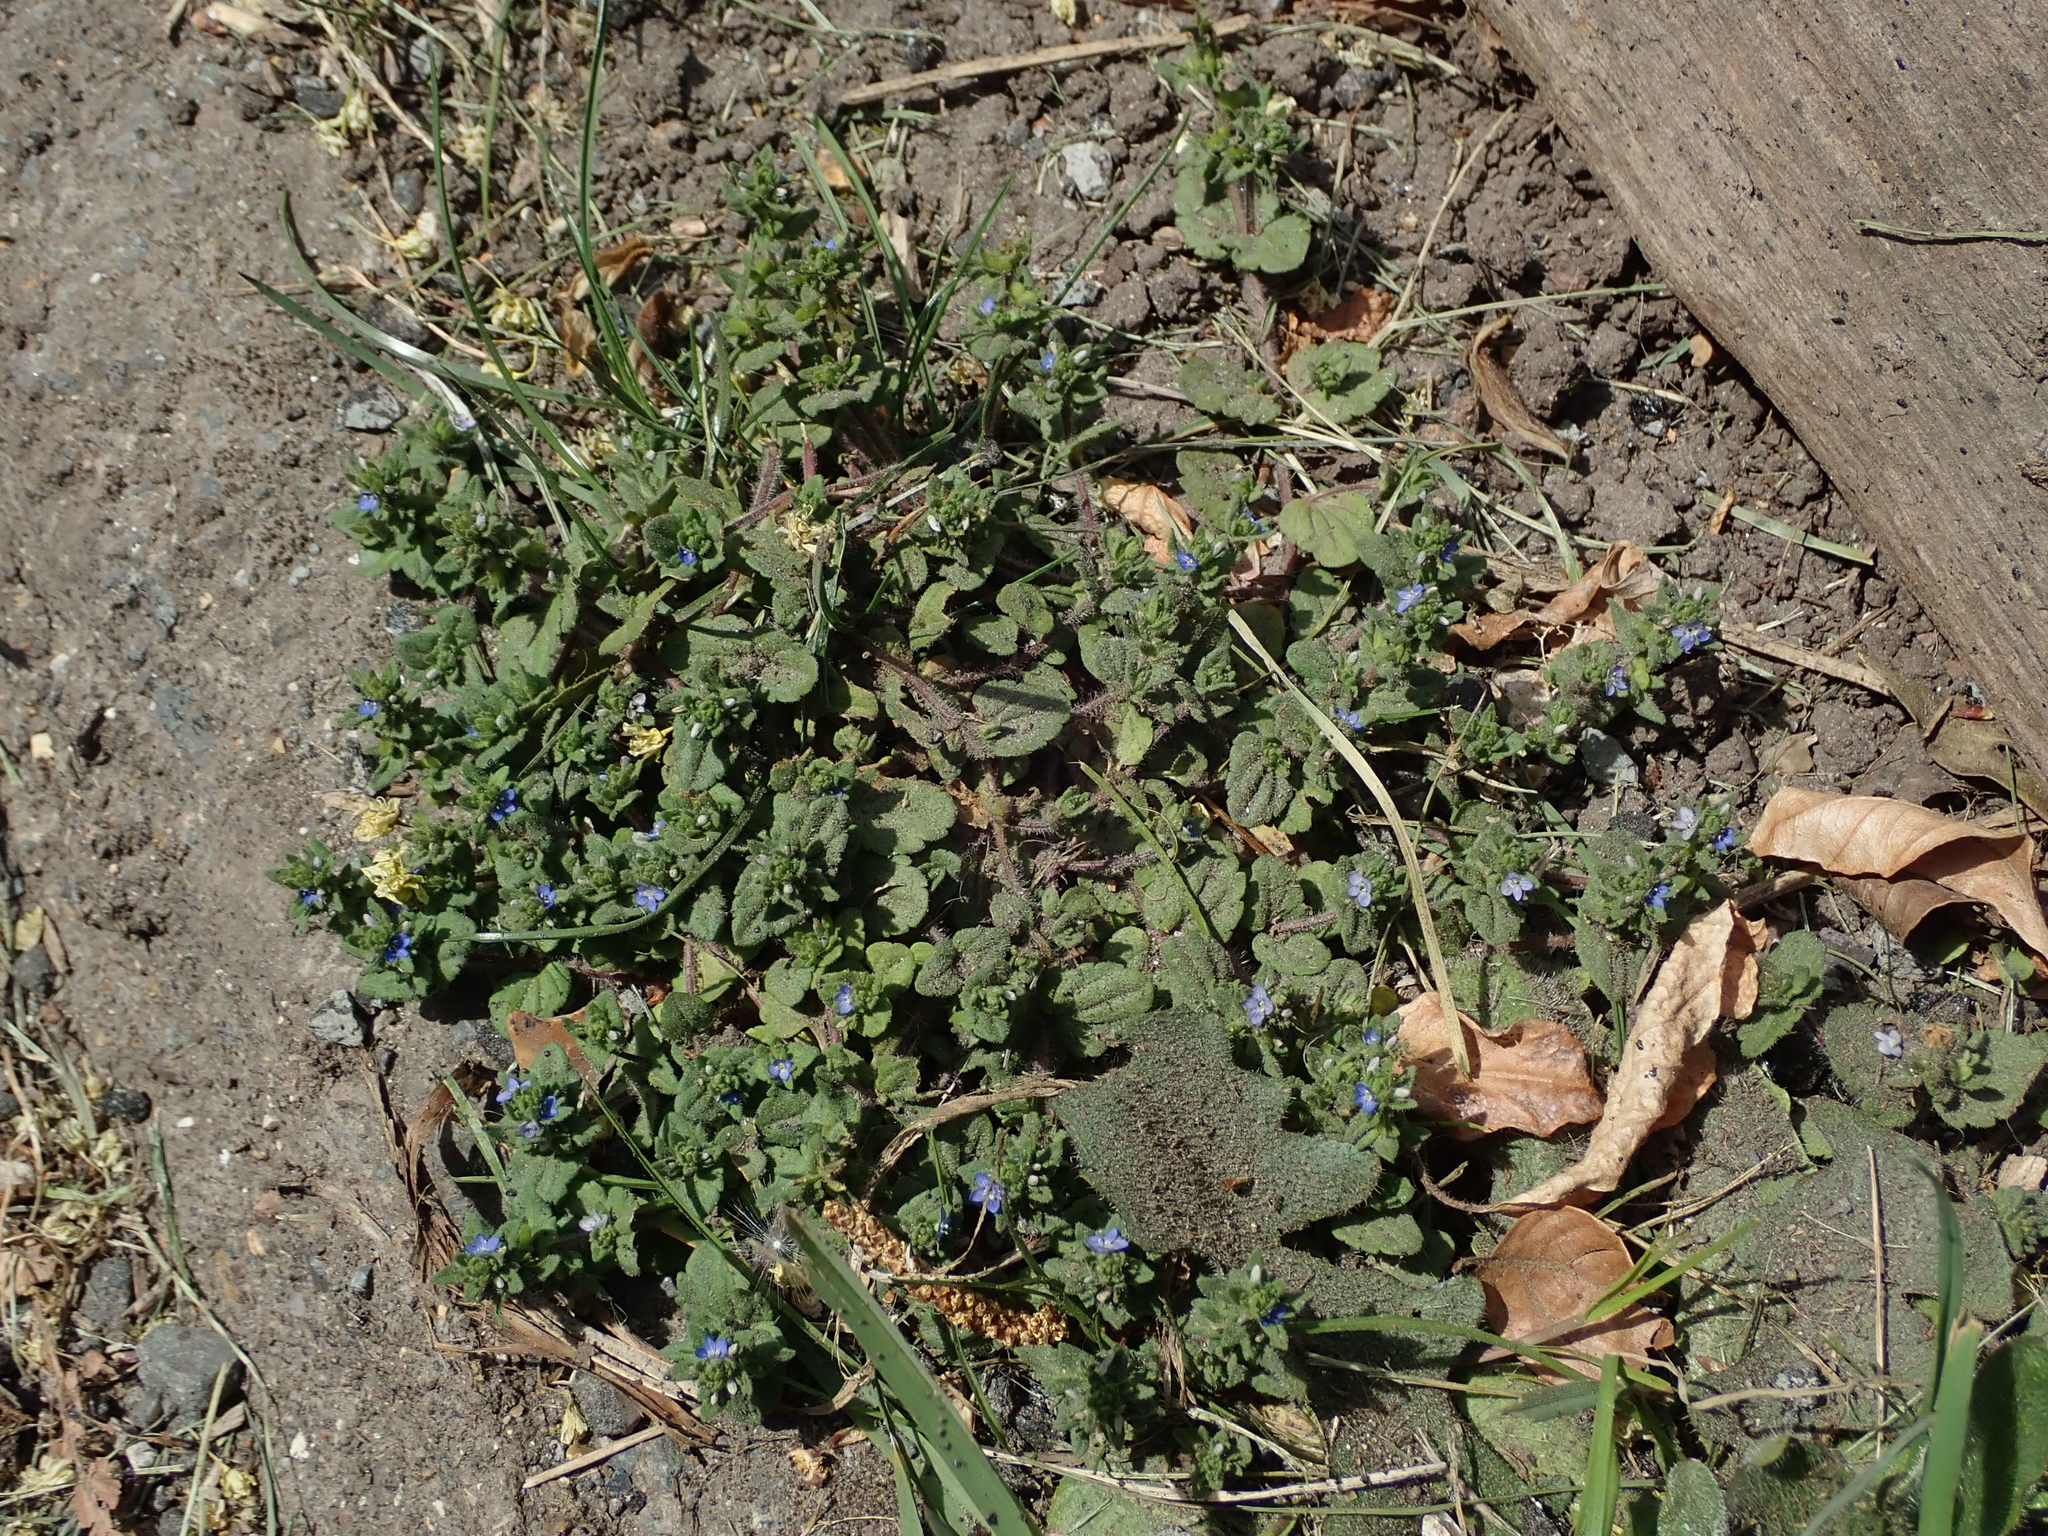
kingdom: Plantae
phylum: Tracheophyta
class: Magnoliopsida
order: Lamiales
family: Plantaginaceae
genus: Veronica
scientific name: Veronica arvensis
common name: Corn speedwell
